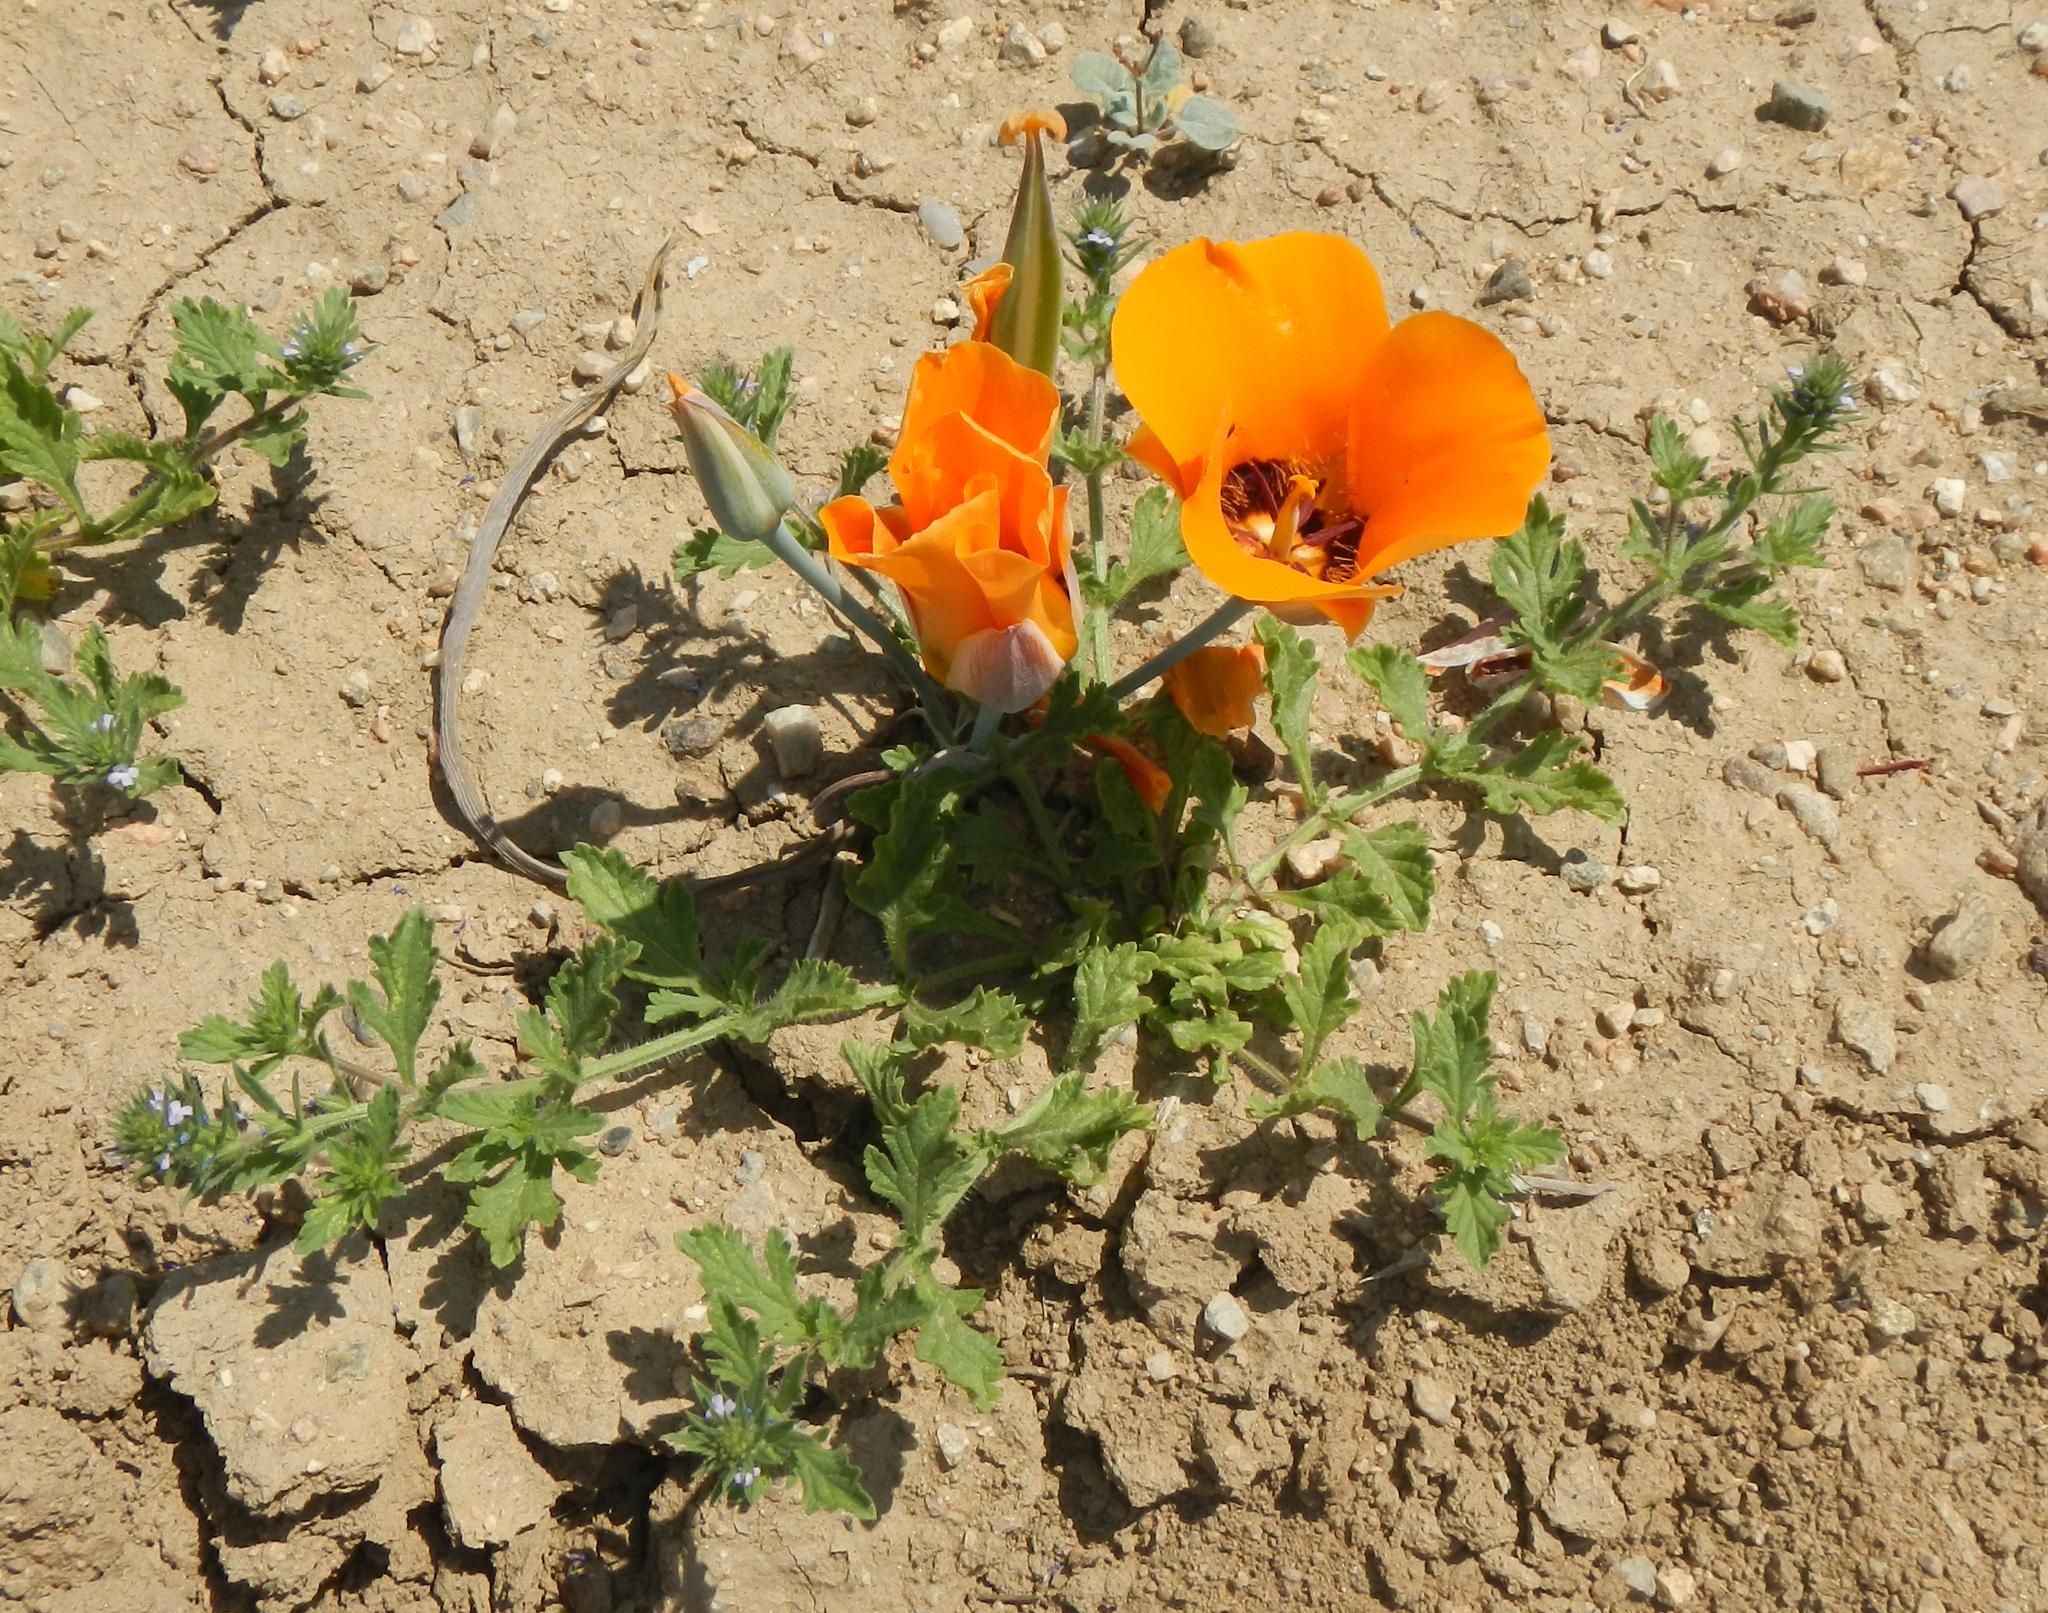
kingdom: Plantae
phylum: Tracheophyta
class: Liliopsida
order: Liliales
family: Liliaceae
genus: Calochortus
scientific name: Calochortus kennedyi
